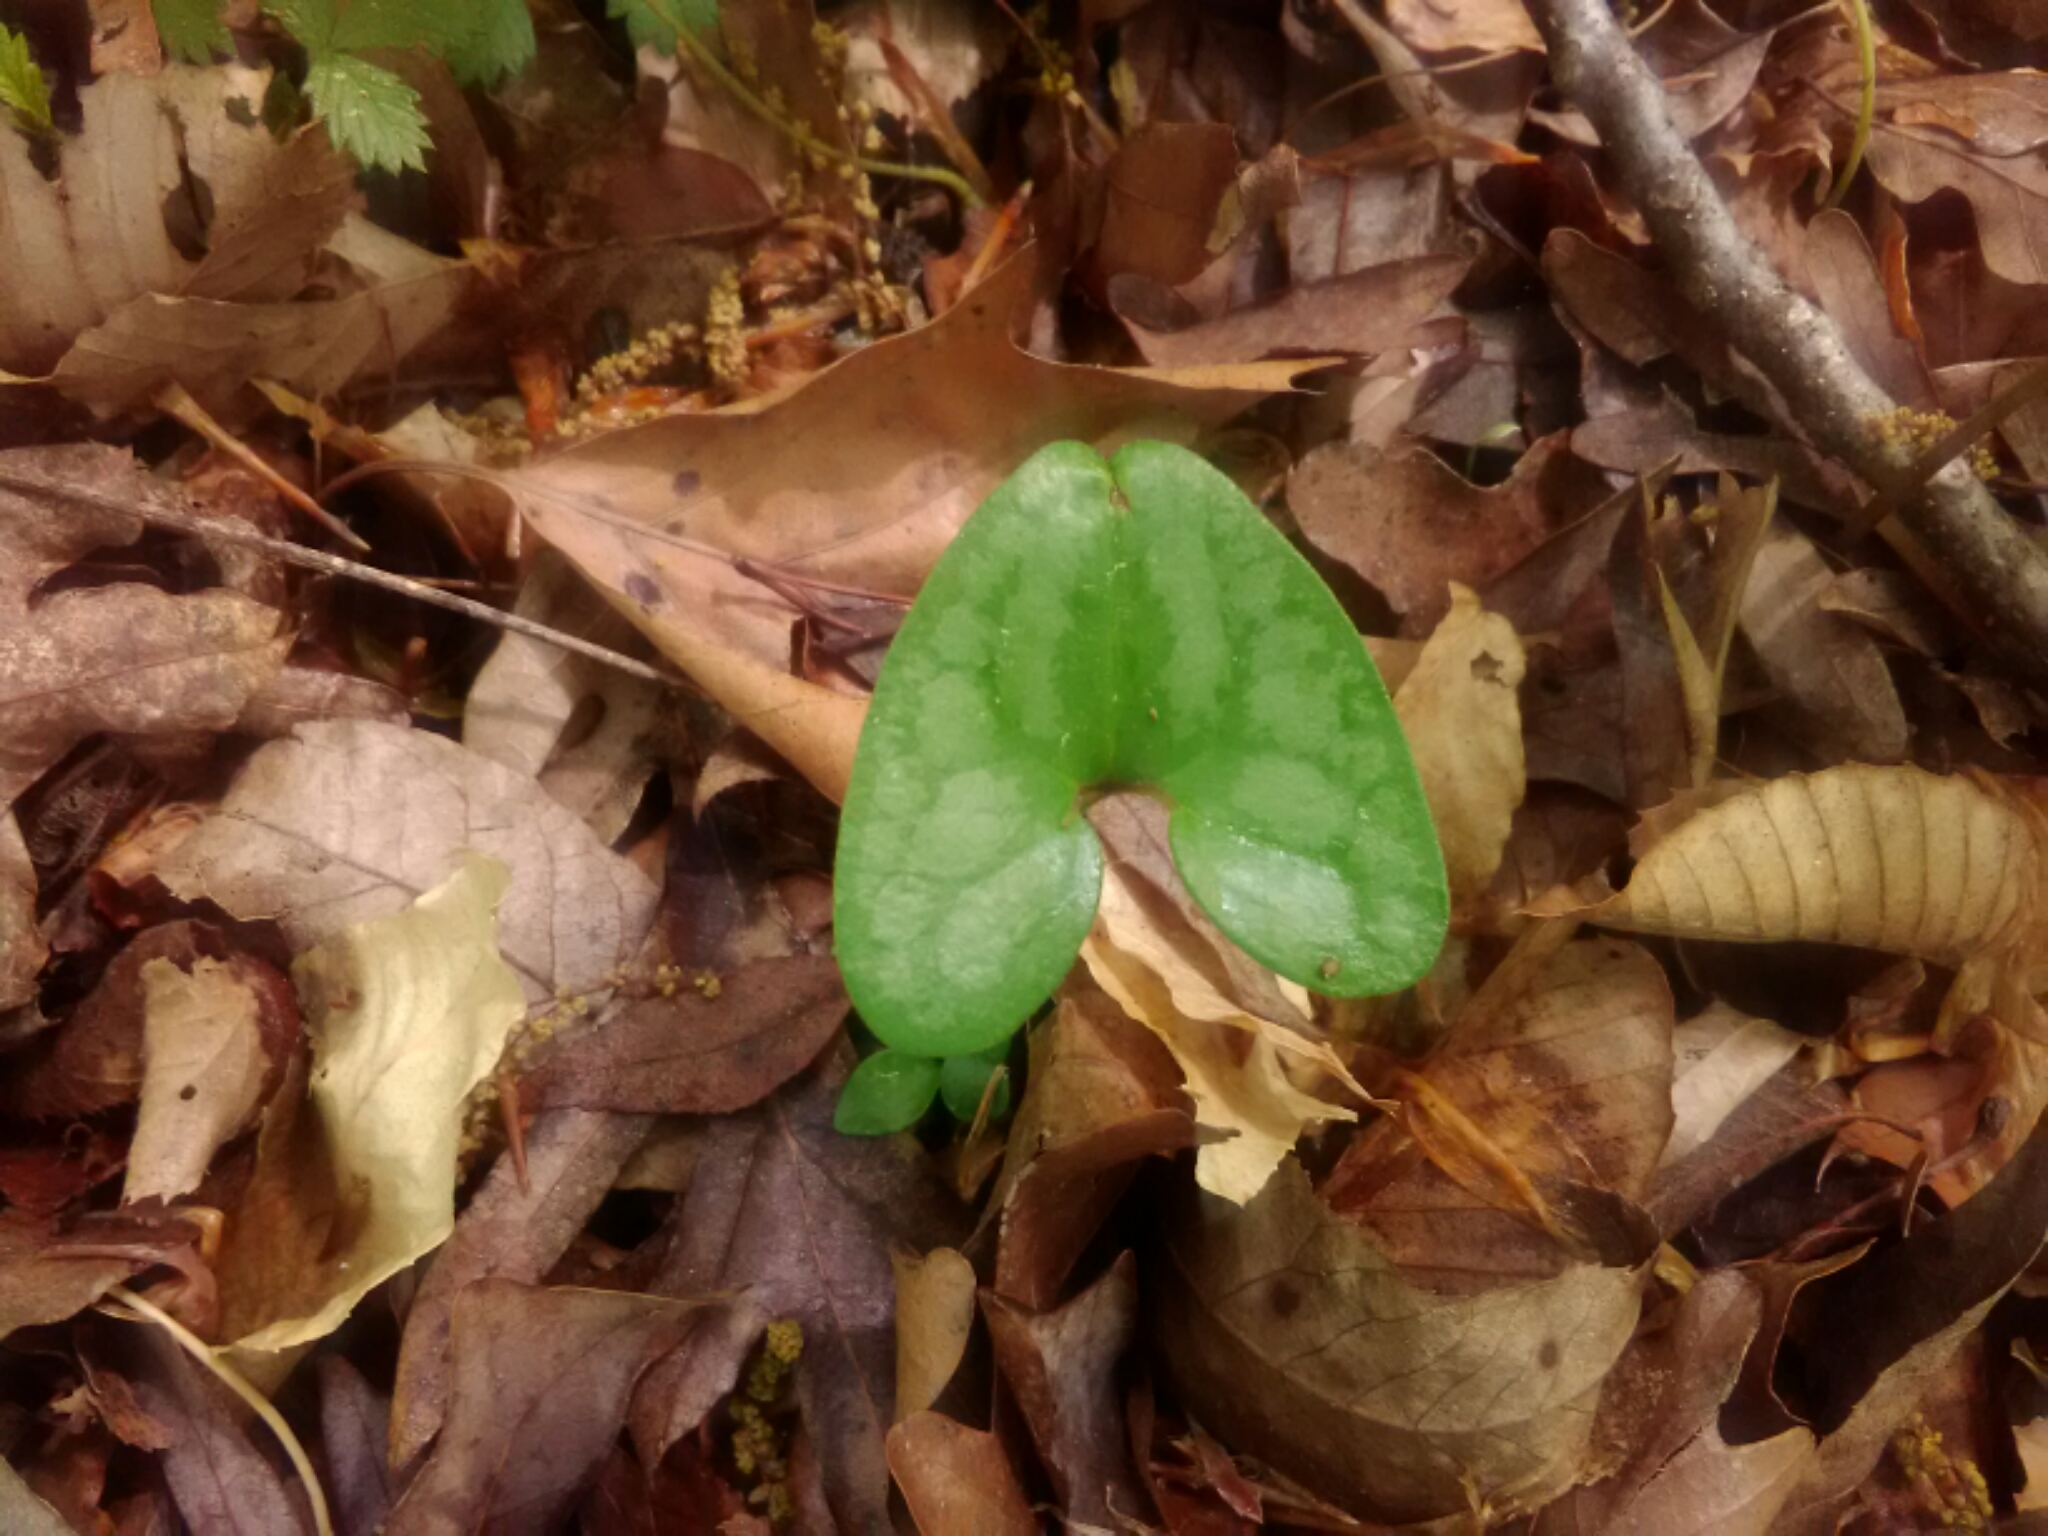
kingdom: Plantae
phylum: Tracheophyta
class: Magnoliopsida
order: Piperales
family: Aristolochiaceae
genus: Hexastylis
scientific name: Hexastylis arifolia
